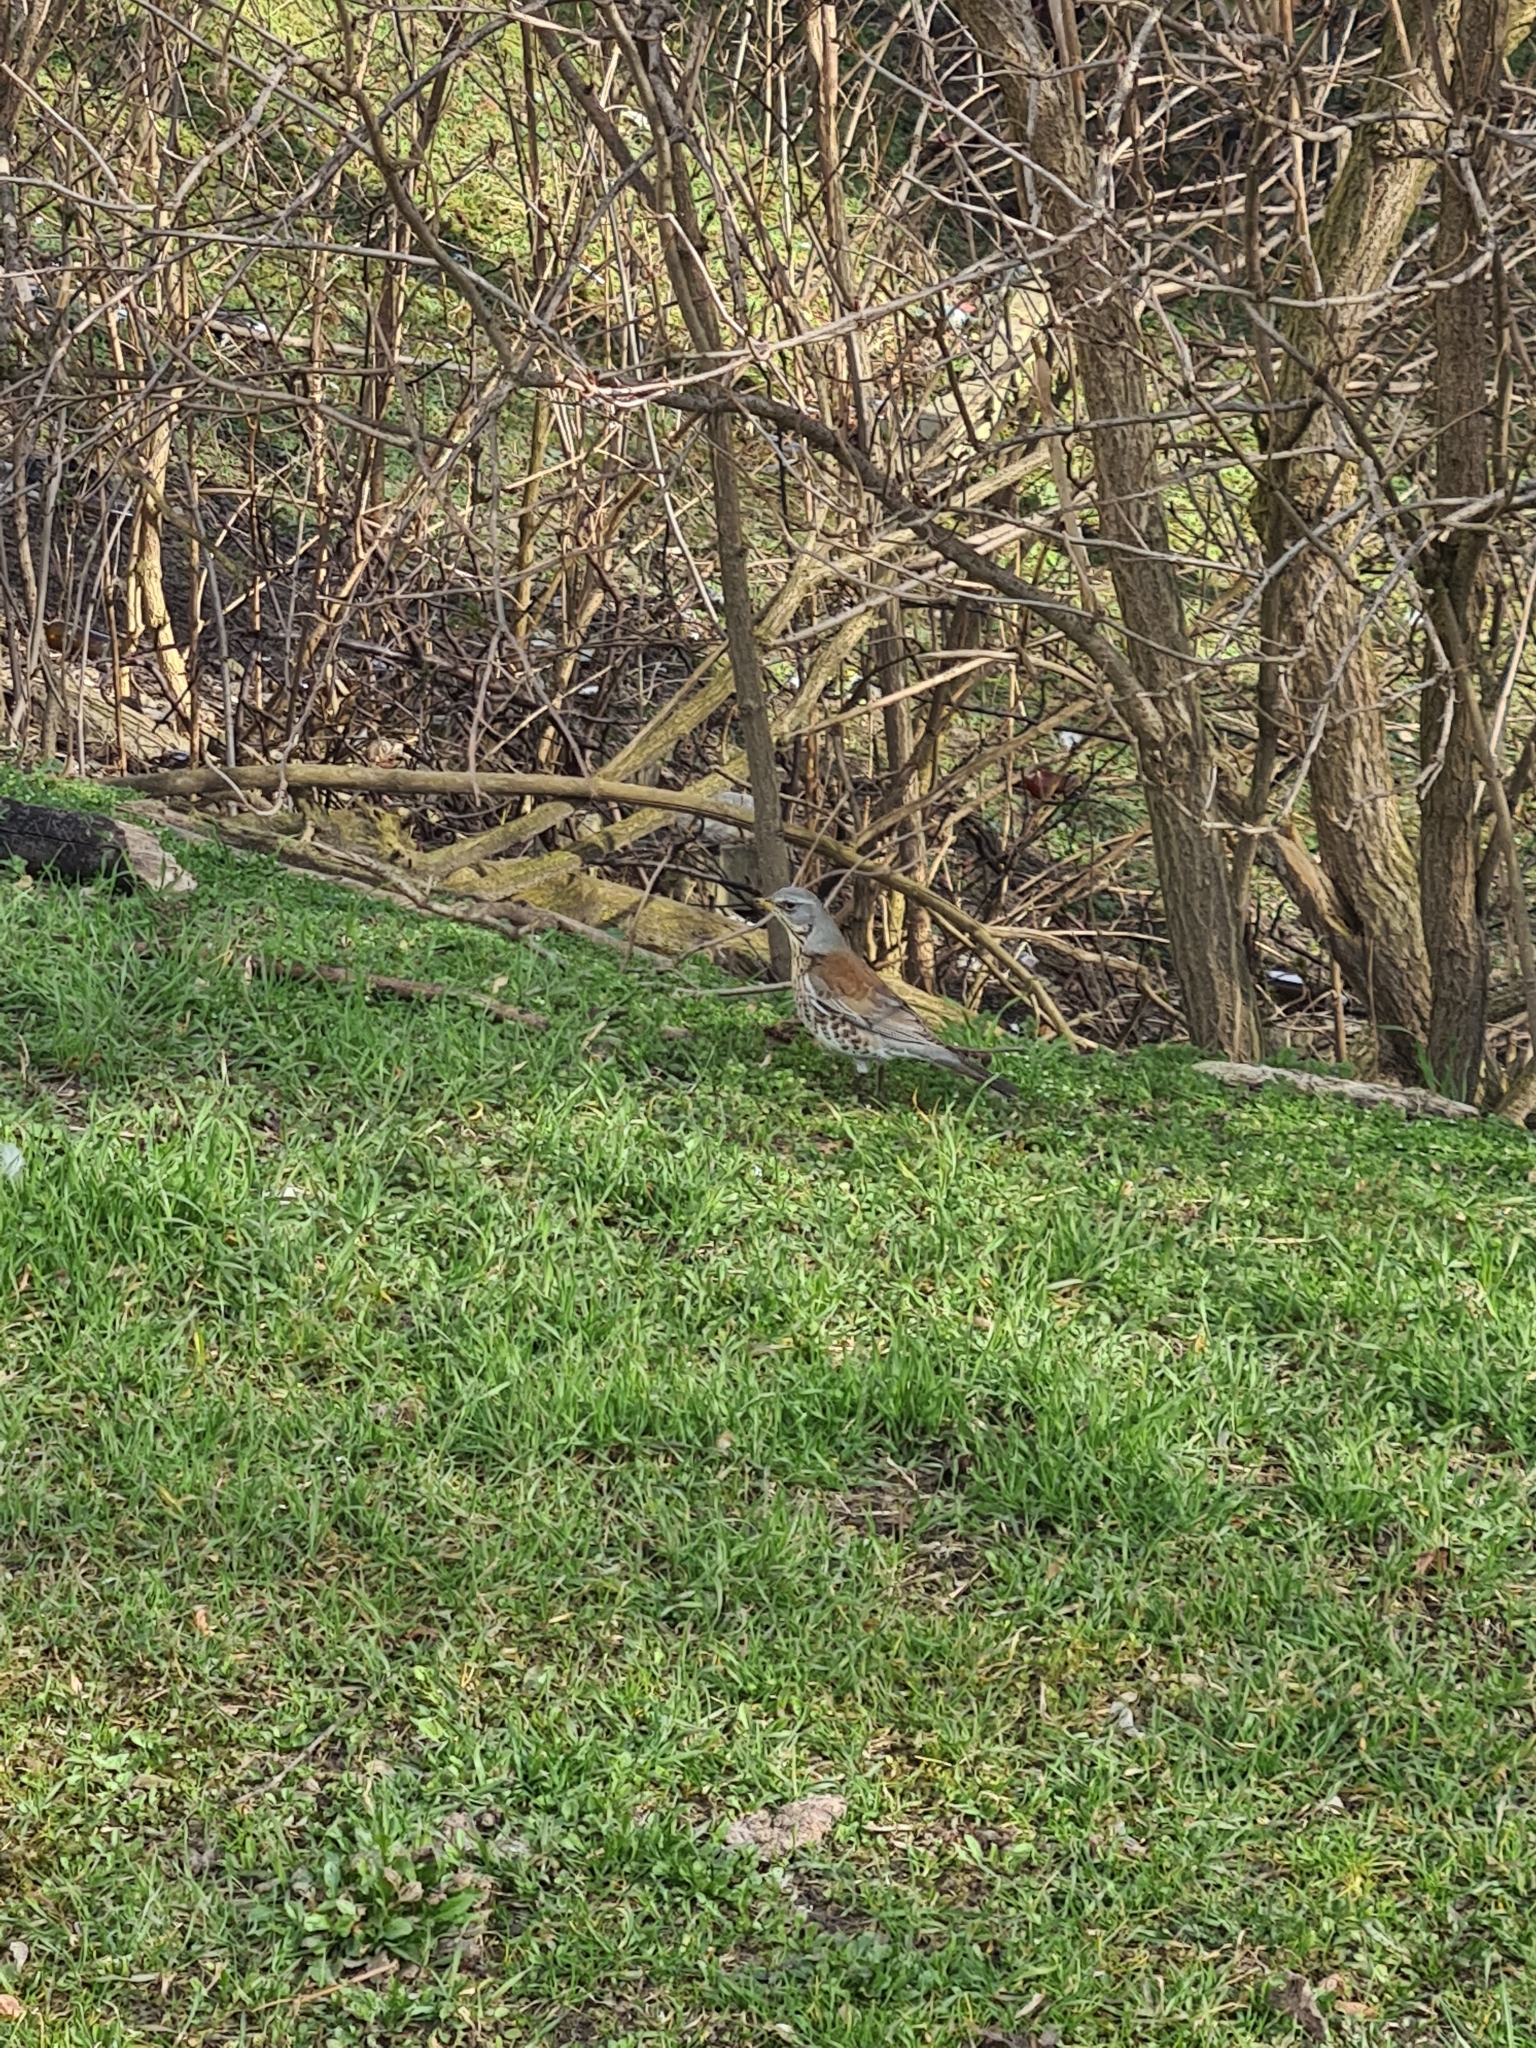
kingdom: Animalia
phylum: Chordata
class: Aves
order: Passeriformes
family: Turdidae
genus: Turdus
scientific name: Turdus pilaris
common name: Fieldfare
